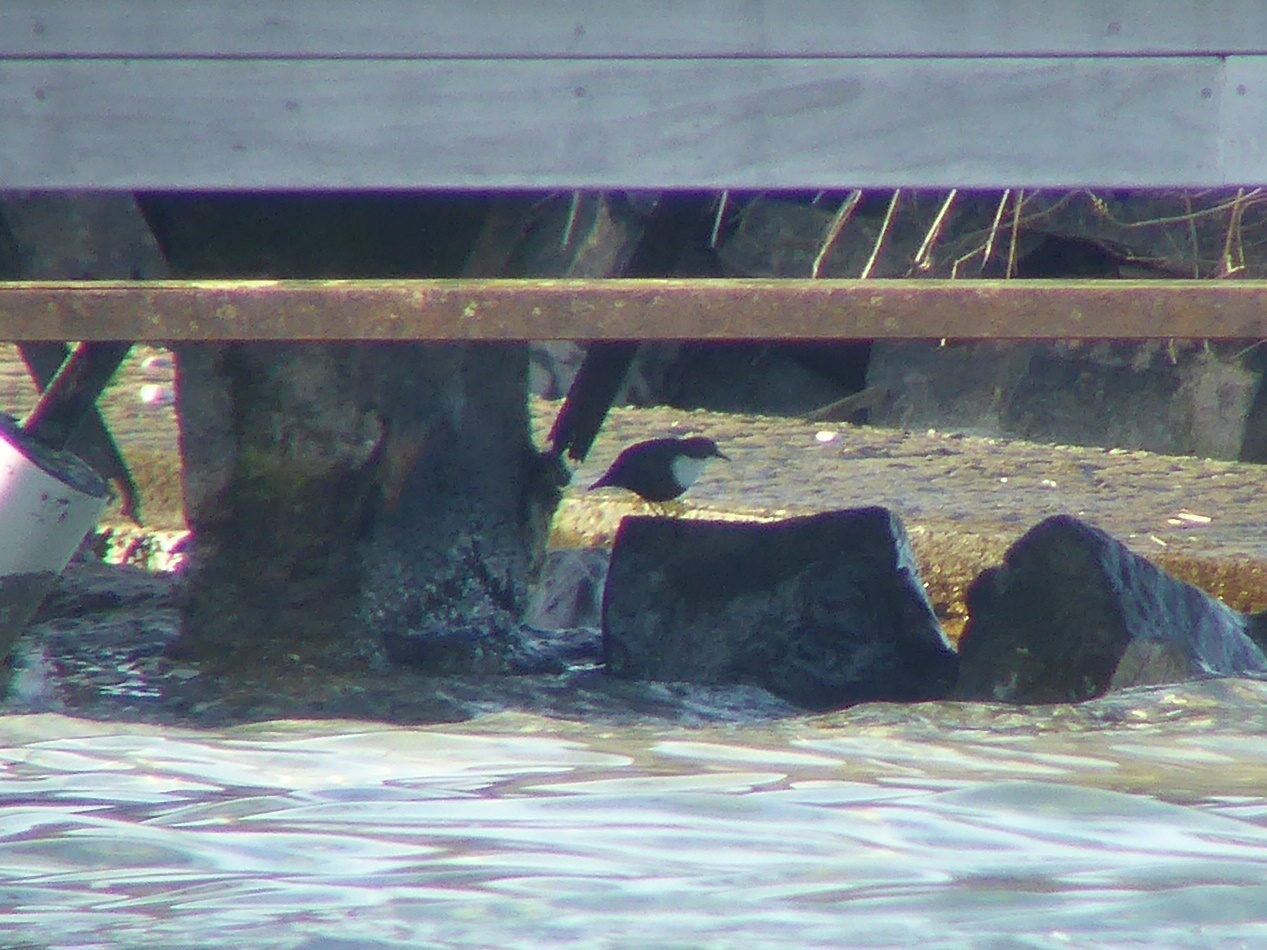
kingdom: Animalia
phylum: Chordata
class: Aves
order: Passeriformes
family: Cinclidae
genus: Cinclus
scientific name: Cinclus cinclus
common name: White-throated dipper
